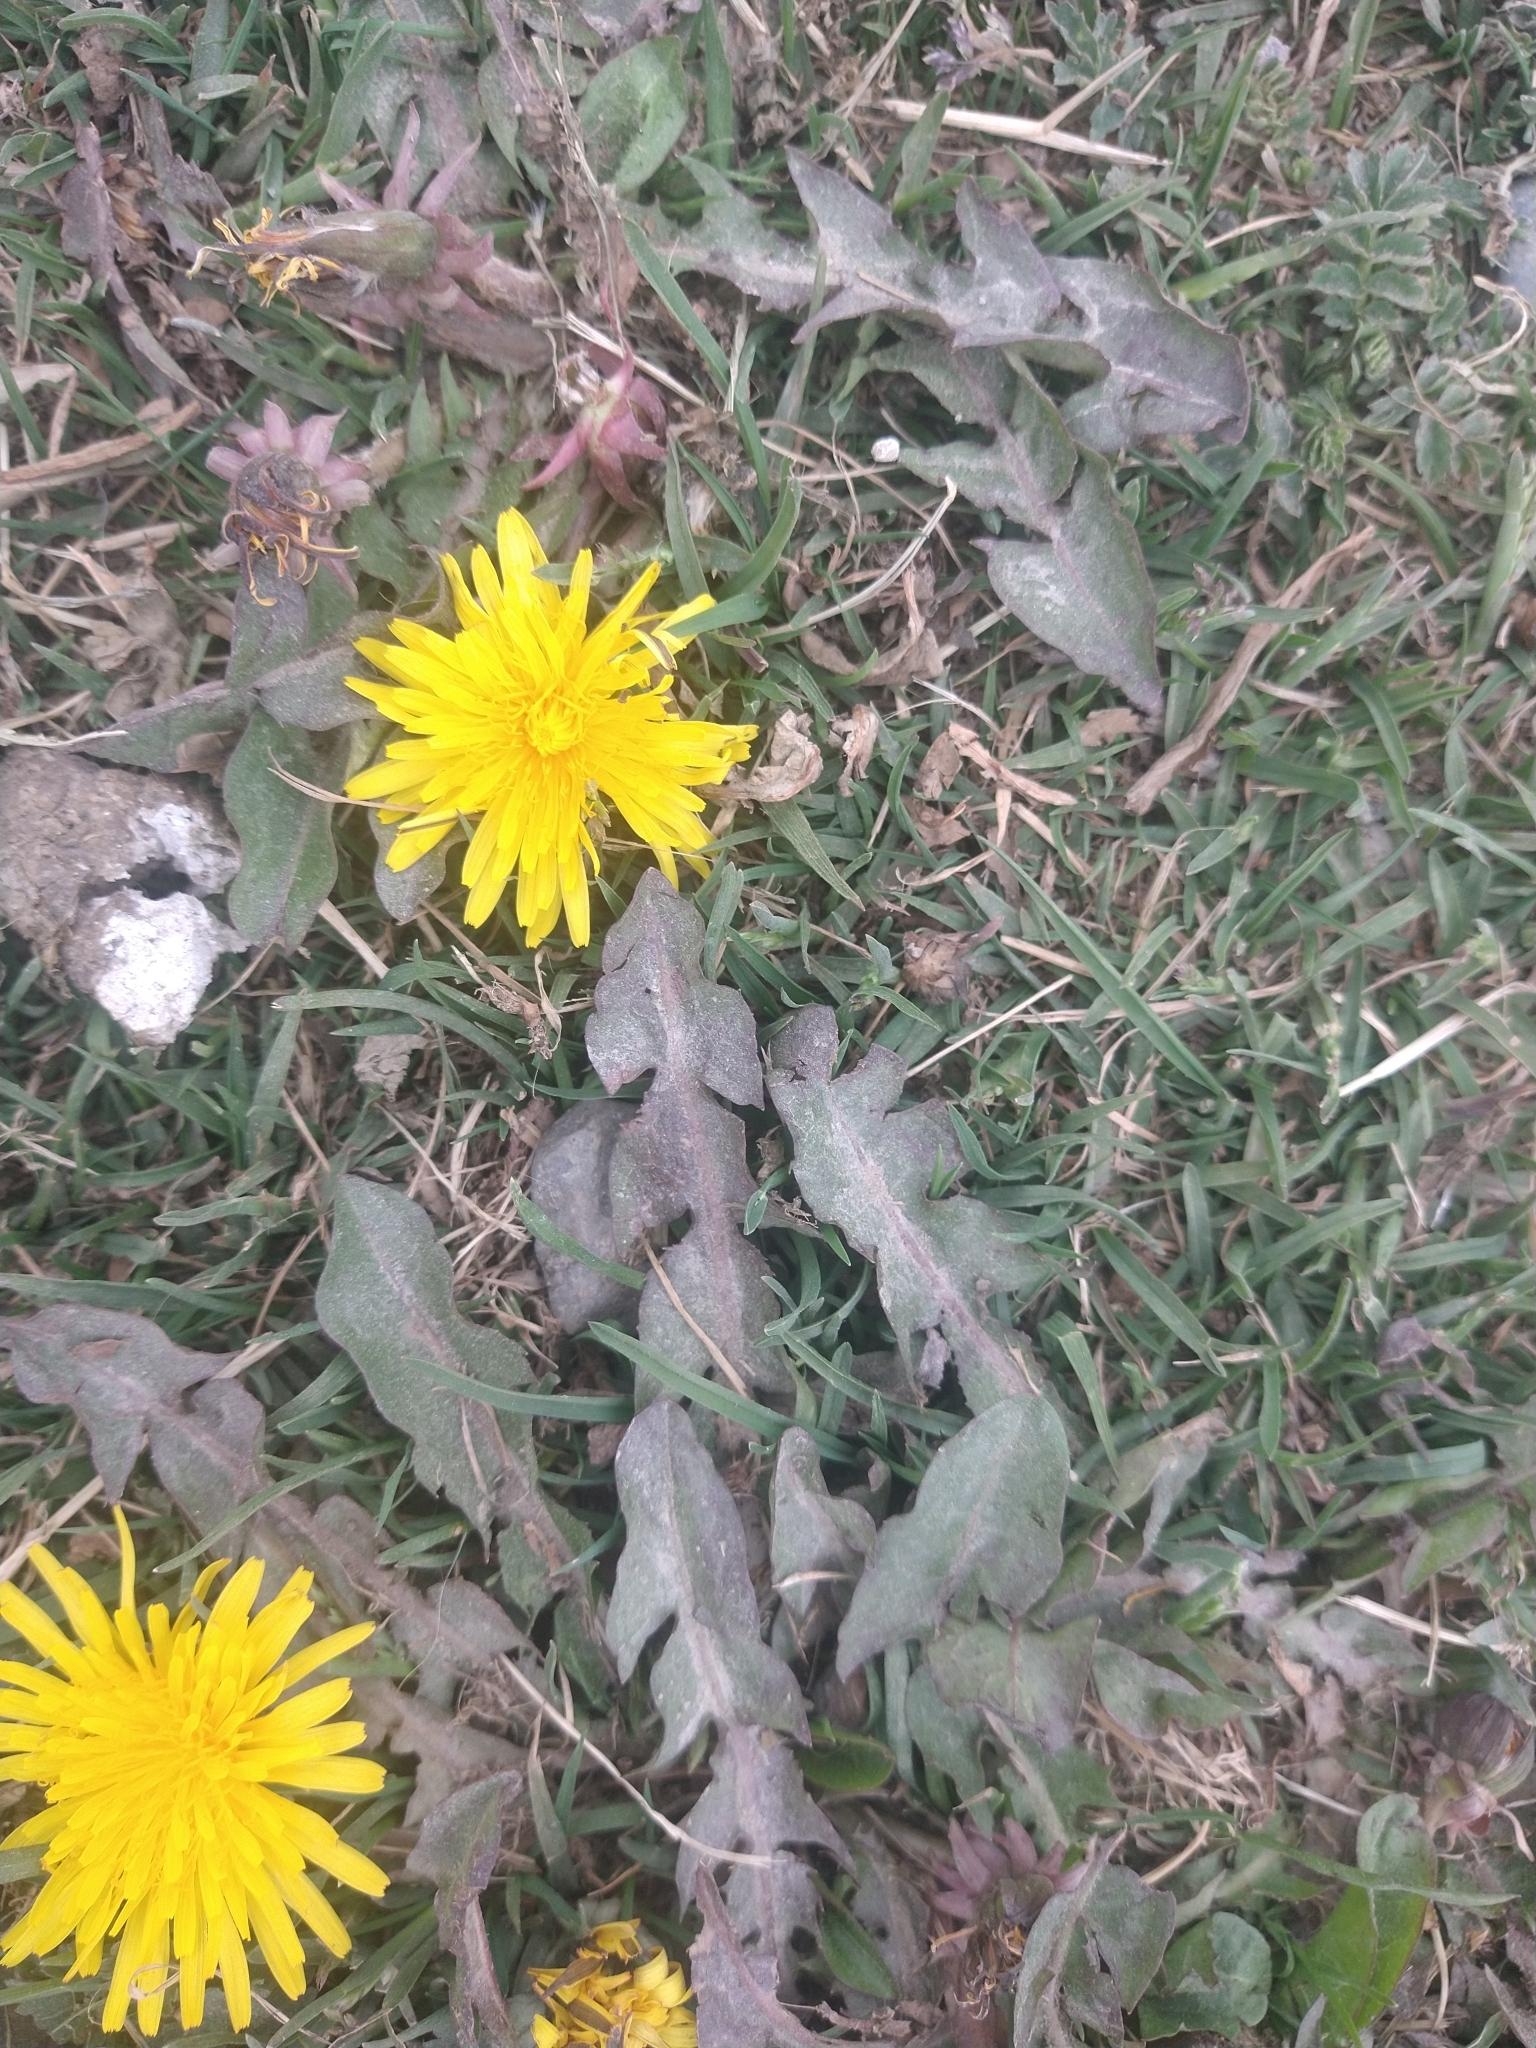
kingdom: Plantae
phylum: Tracheophyta
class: Magnoliopsida
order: Asterales
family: Asteraceae
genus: Taraxacum
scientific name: Taraxacum officinale
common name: Common dandelion
